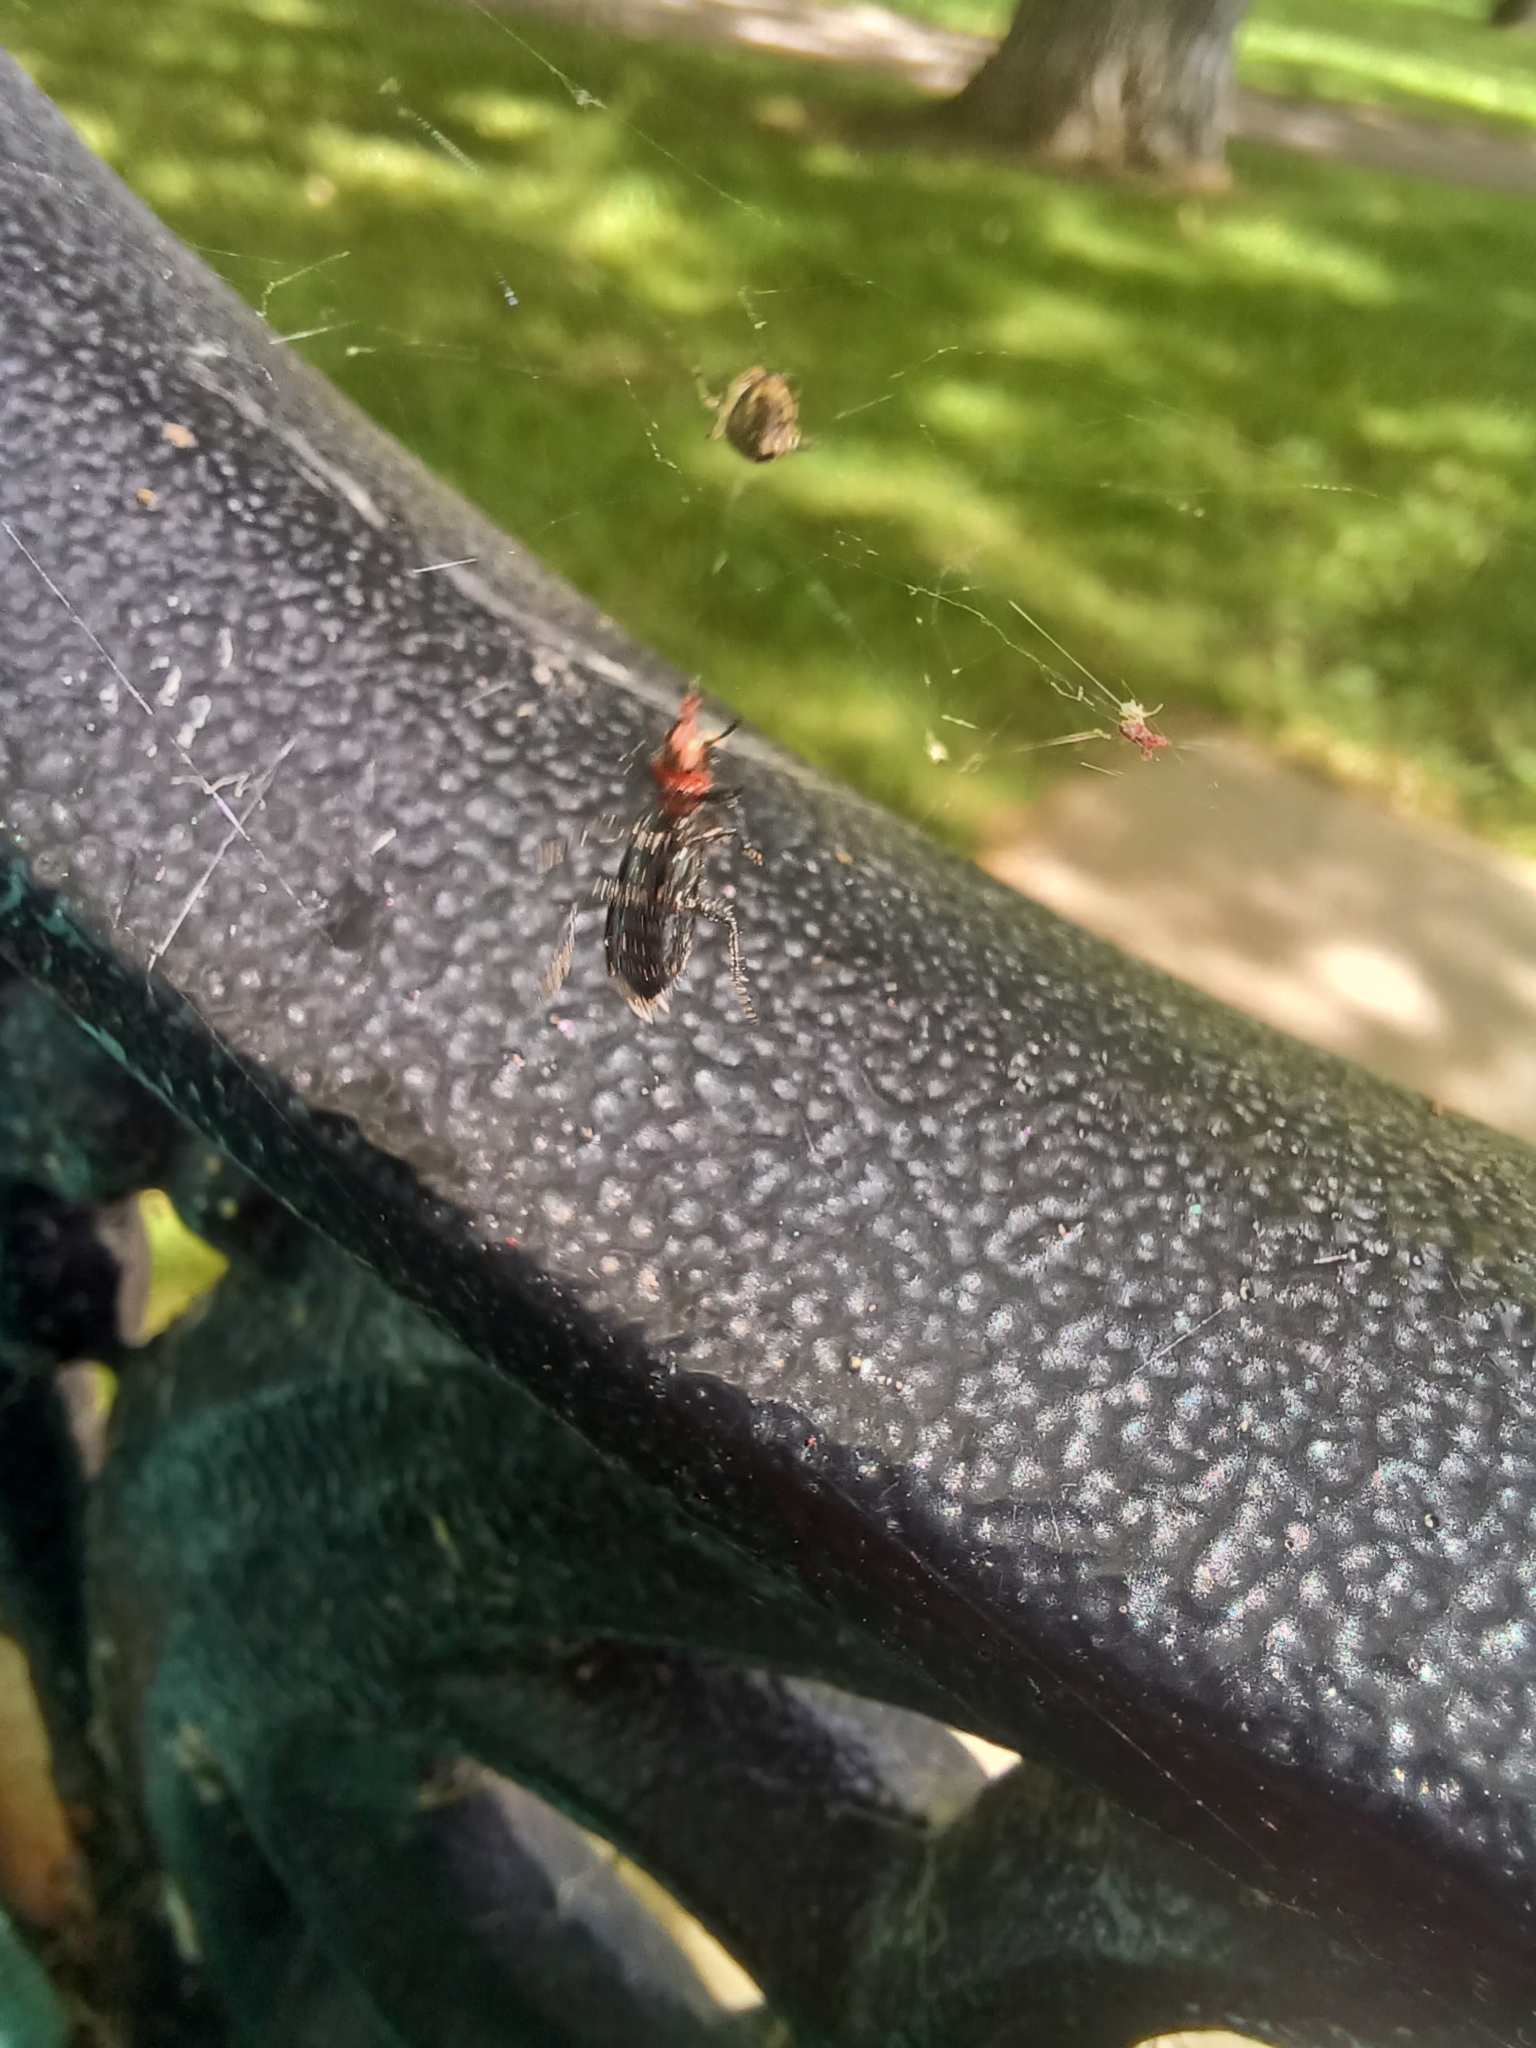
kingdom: Animalia
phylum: Arthropoda
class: Insecta
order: Coleoptera
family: Cleridae
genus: Placopterus
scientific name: Placopterus thoracicus
